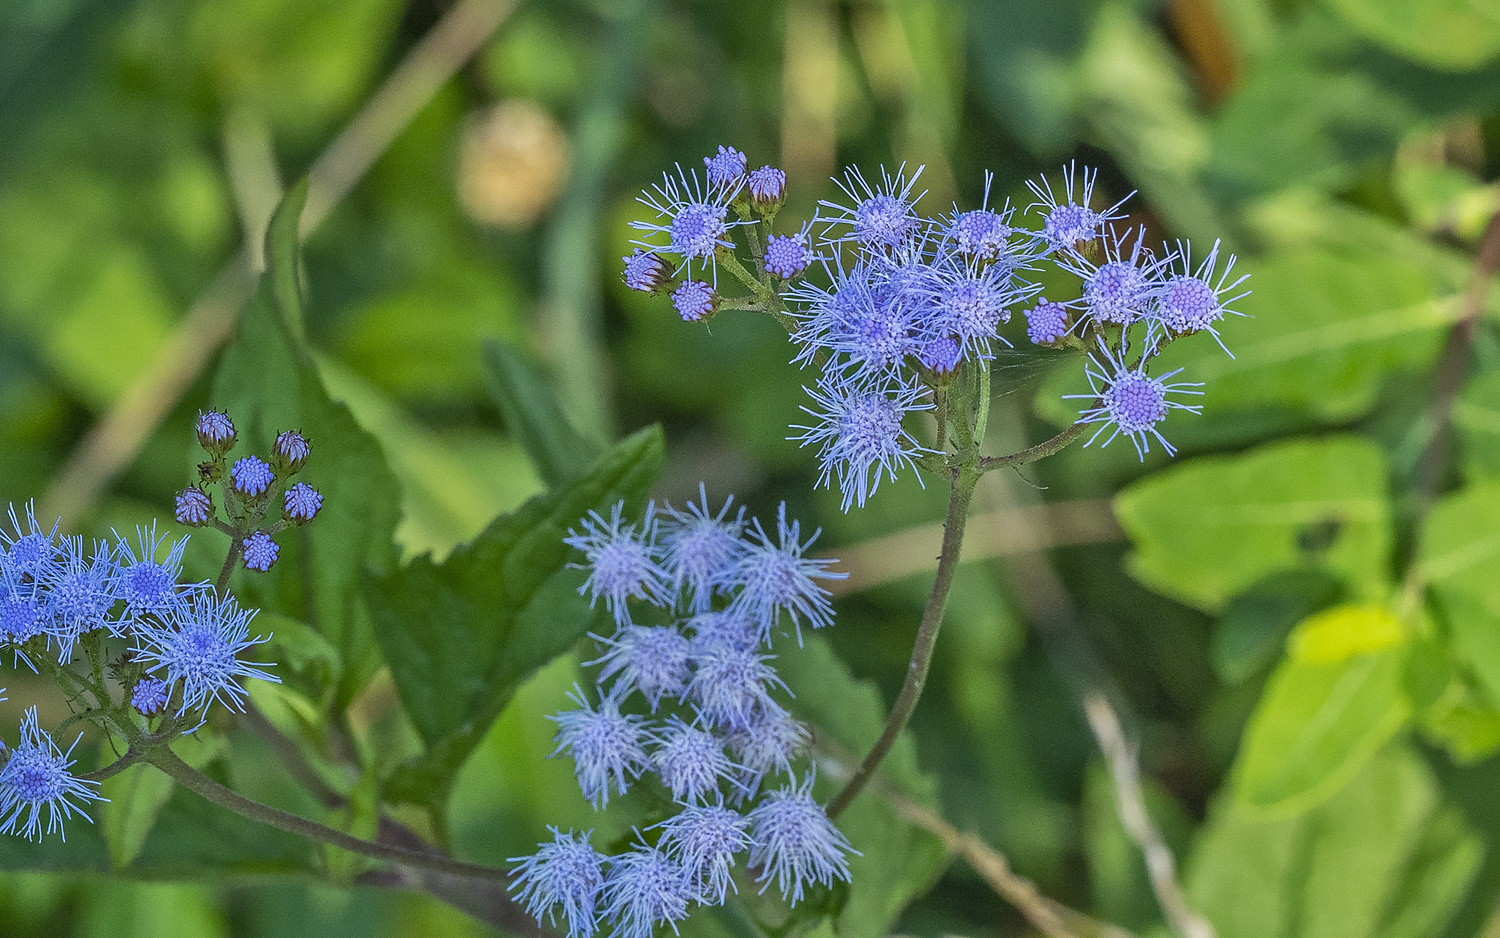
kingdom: Plantae
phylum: Tracheophyta
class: Magnoliopsida
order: Asterales
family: Asteraceae
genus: Conoclinium
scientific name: Conoclinium coelestinum
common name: Blue mistflower
